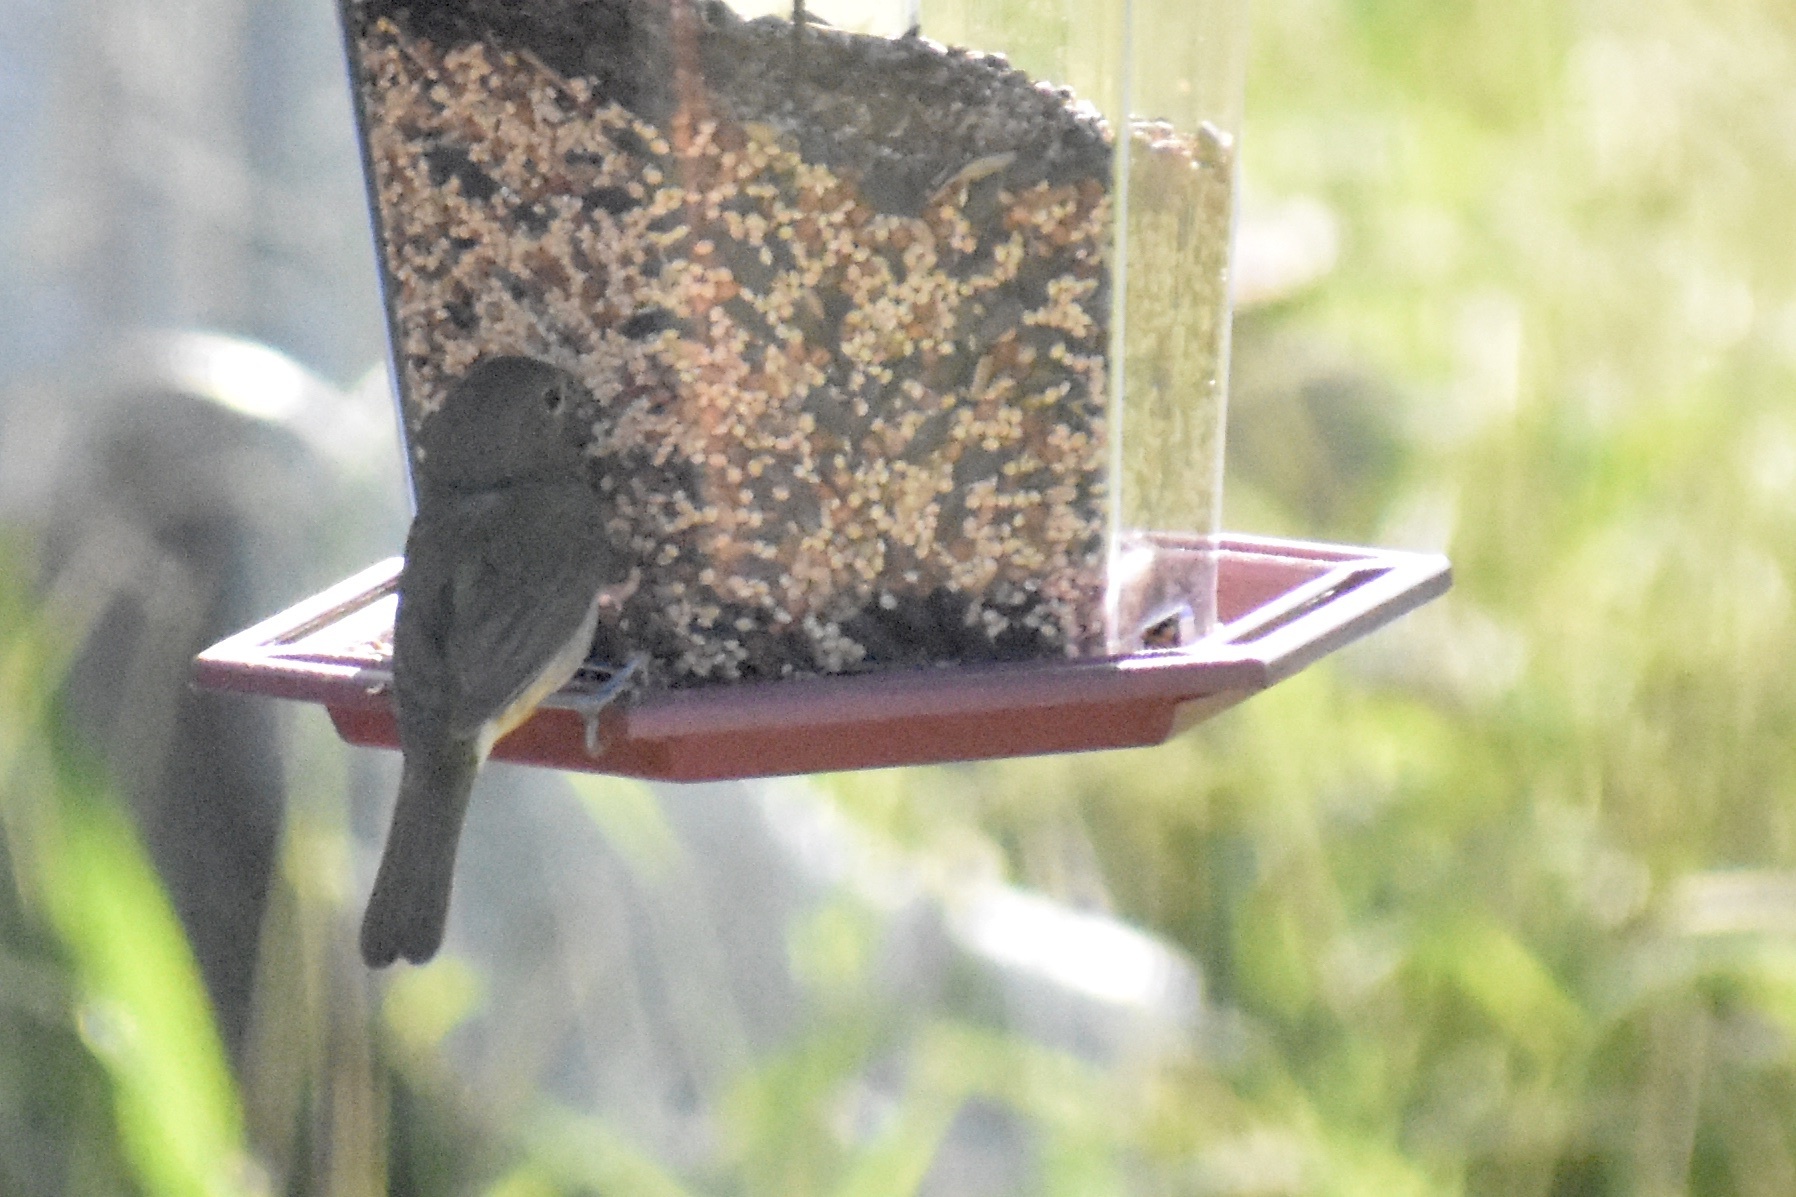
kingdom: Animalia
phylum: Chordata
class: Aves
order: Passeriformes
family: Cardinalidae
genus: Passerina
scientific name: Passerina ciris
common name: Painted bunting
